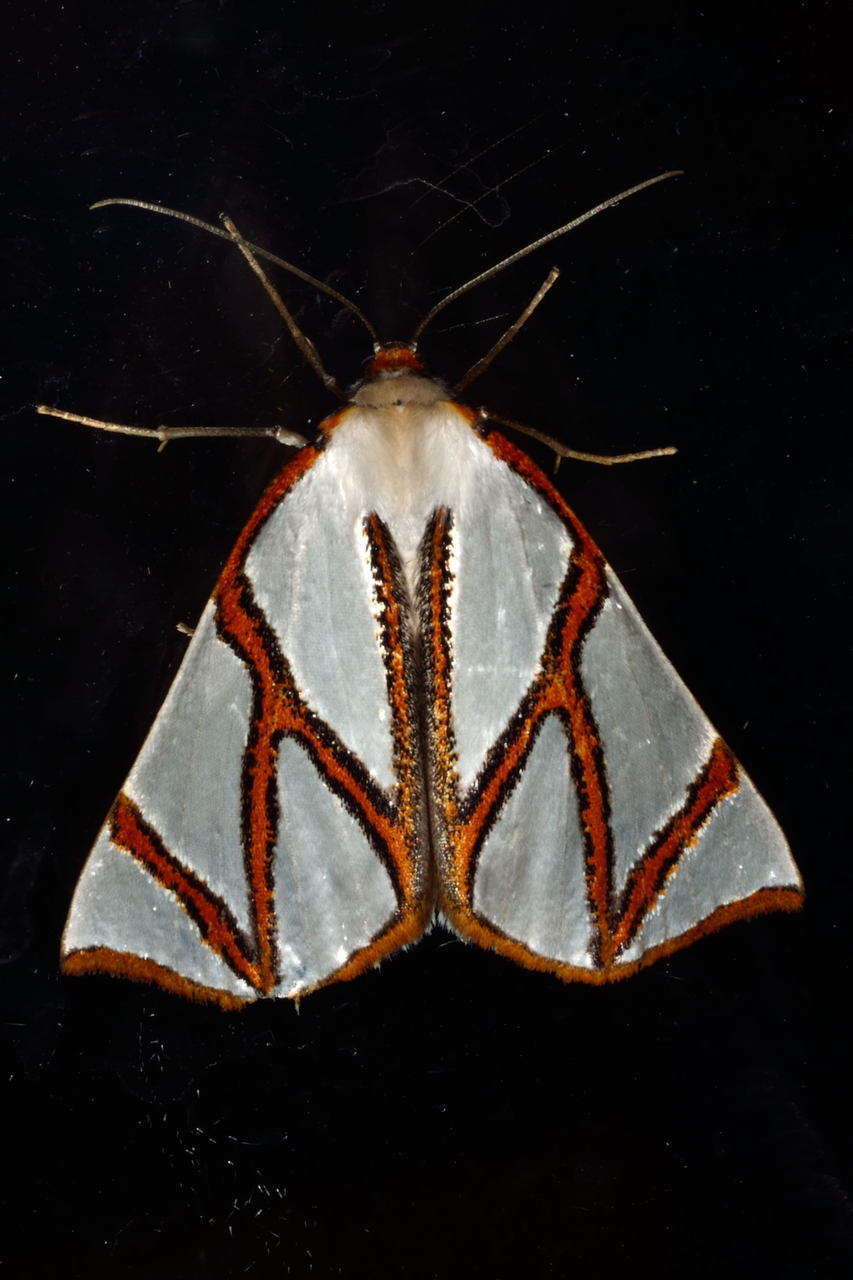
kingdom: Animalia
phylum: Arthropoda
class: Insecta
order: Lepidoptera
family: Geometridae
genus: Thalaina
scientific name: Thalaina clara
